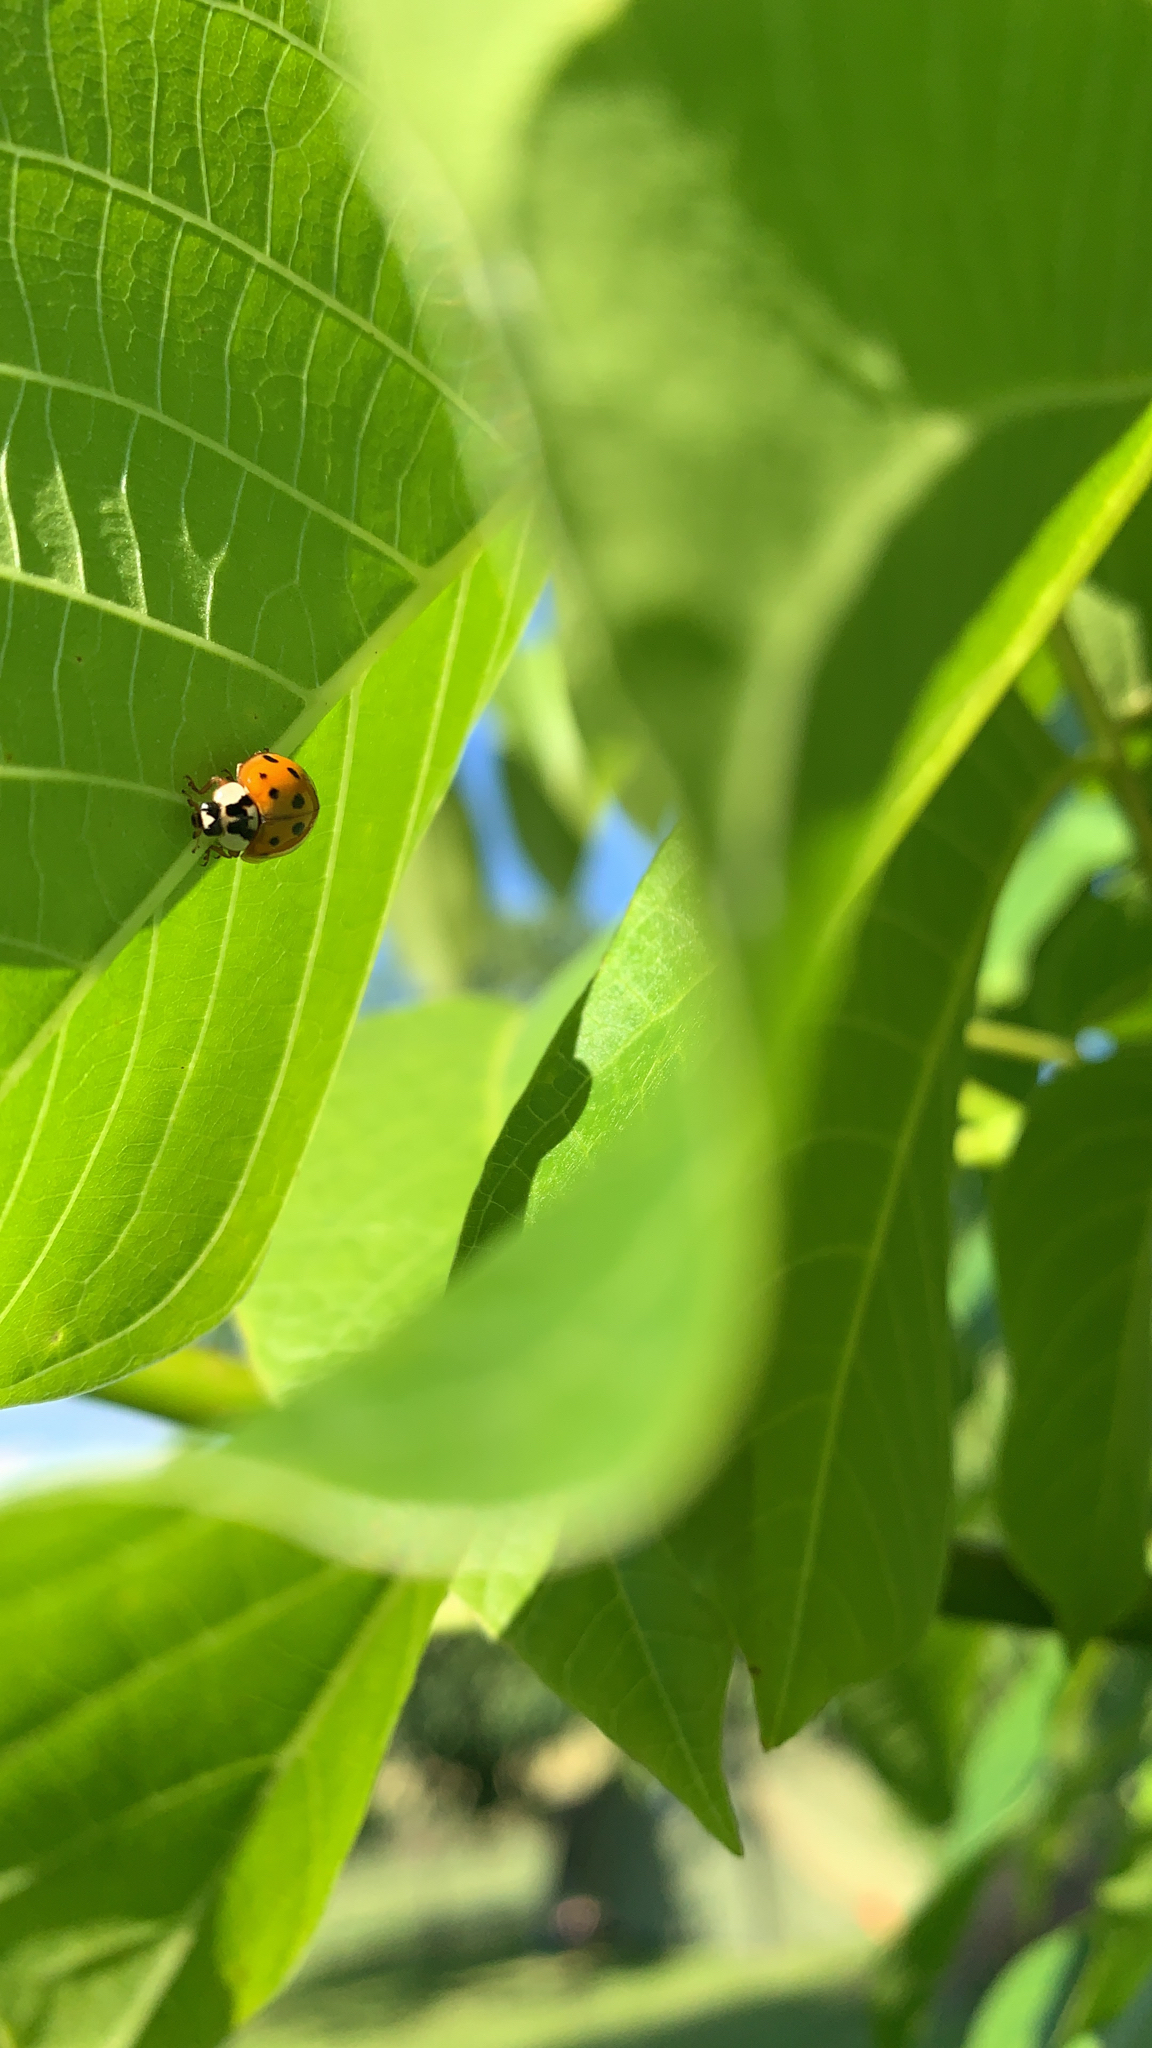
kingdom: Animalia
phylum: Arthropoda
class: Insecta
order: Coleoptera
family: Coccinellidae
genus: Harmonia
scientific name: Harmonia axyridis
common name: Harlequin ladybird
